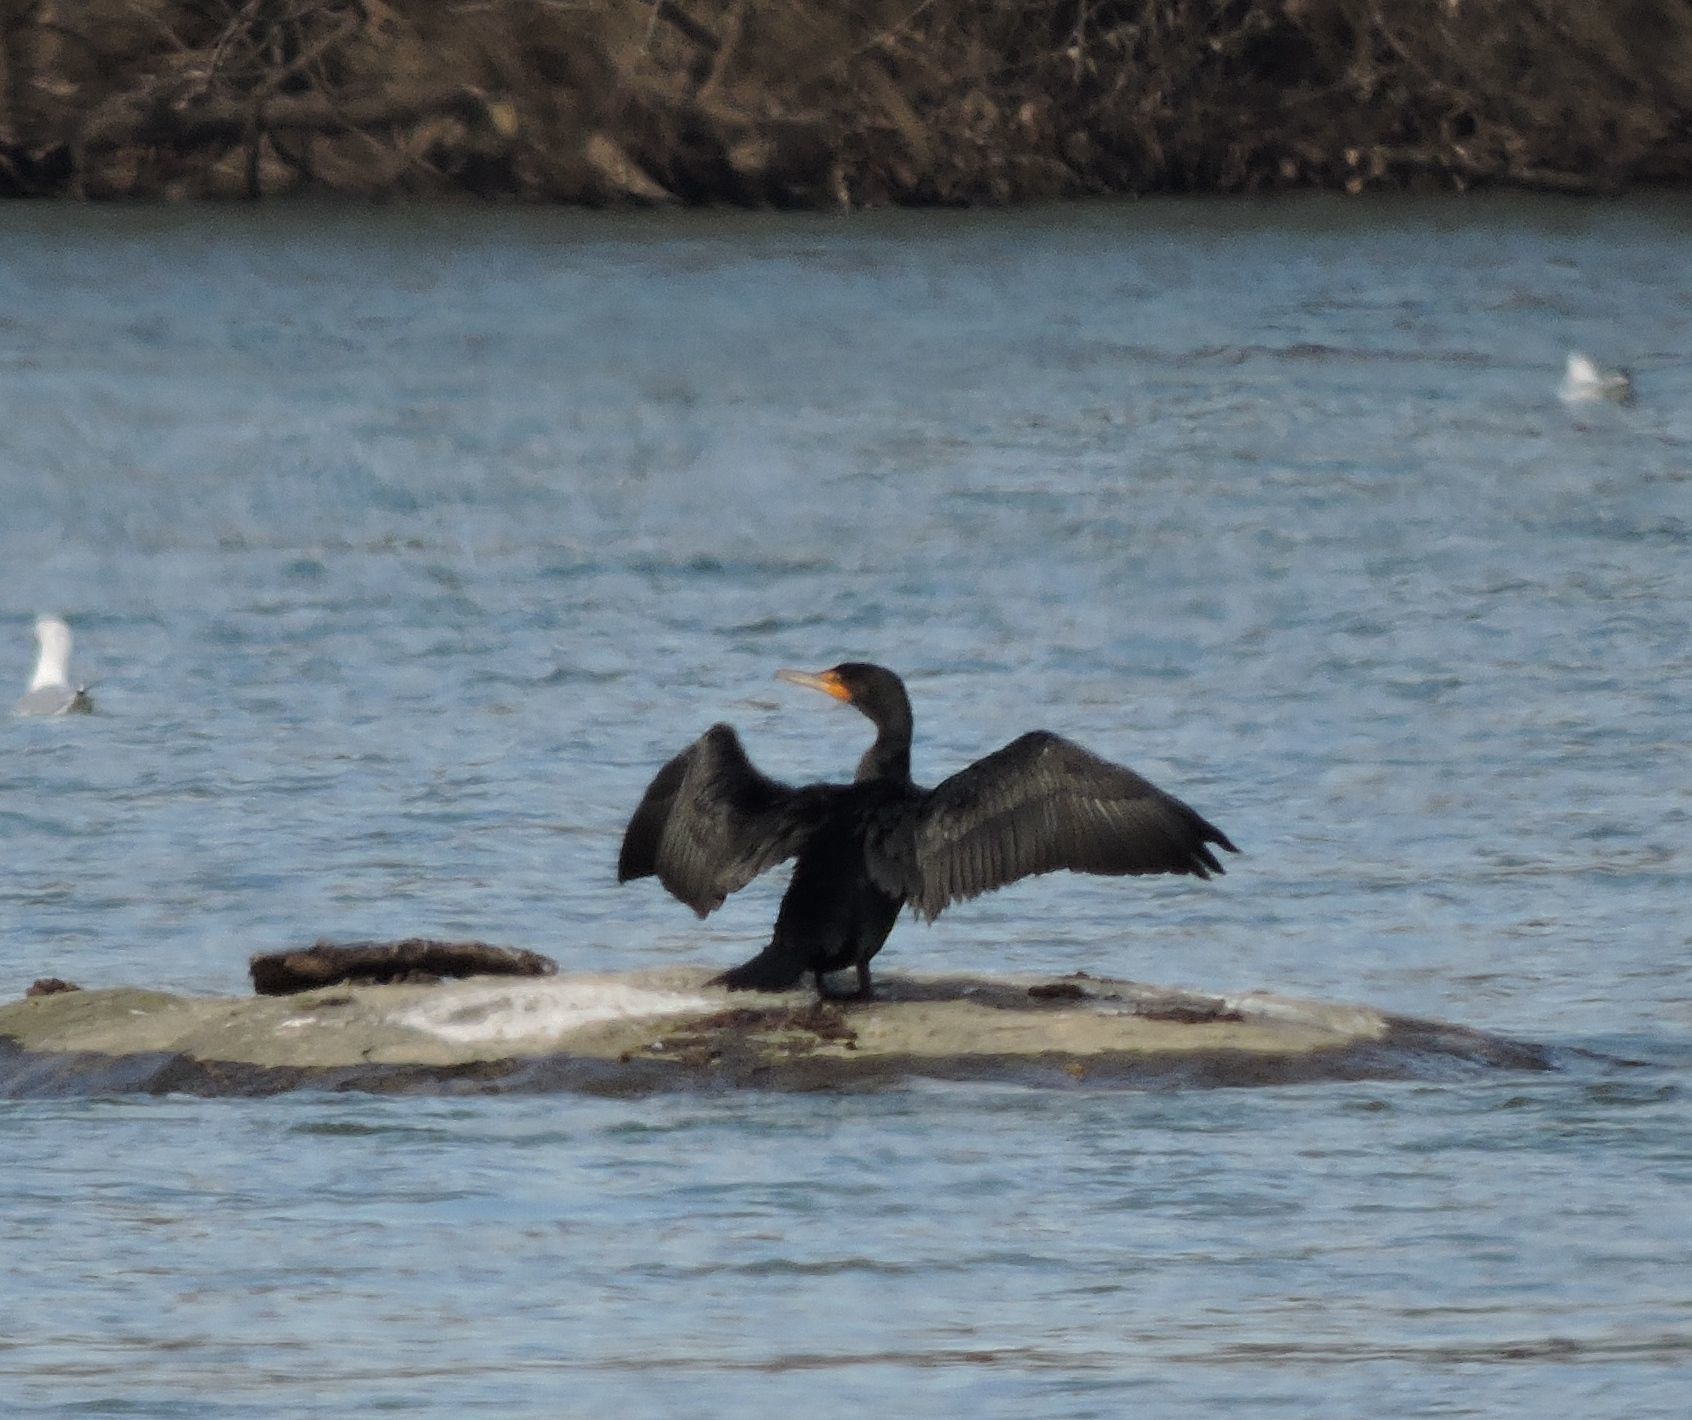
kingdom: Animalia
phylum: Chordata
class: Aves
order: Suliformes
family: Phalacrocoracidae
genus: Phalacrocorax
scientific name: Phalacrocorax auritus
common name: Double-crested cormorant
